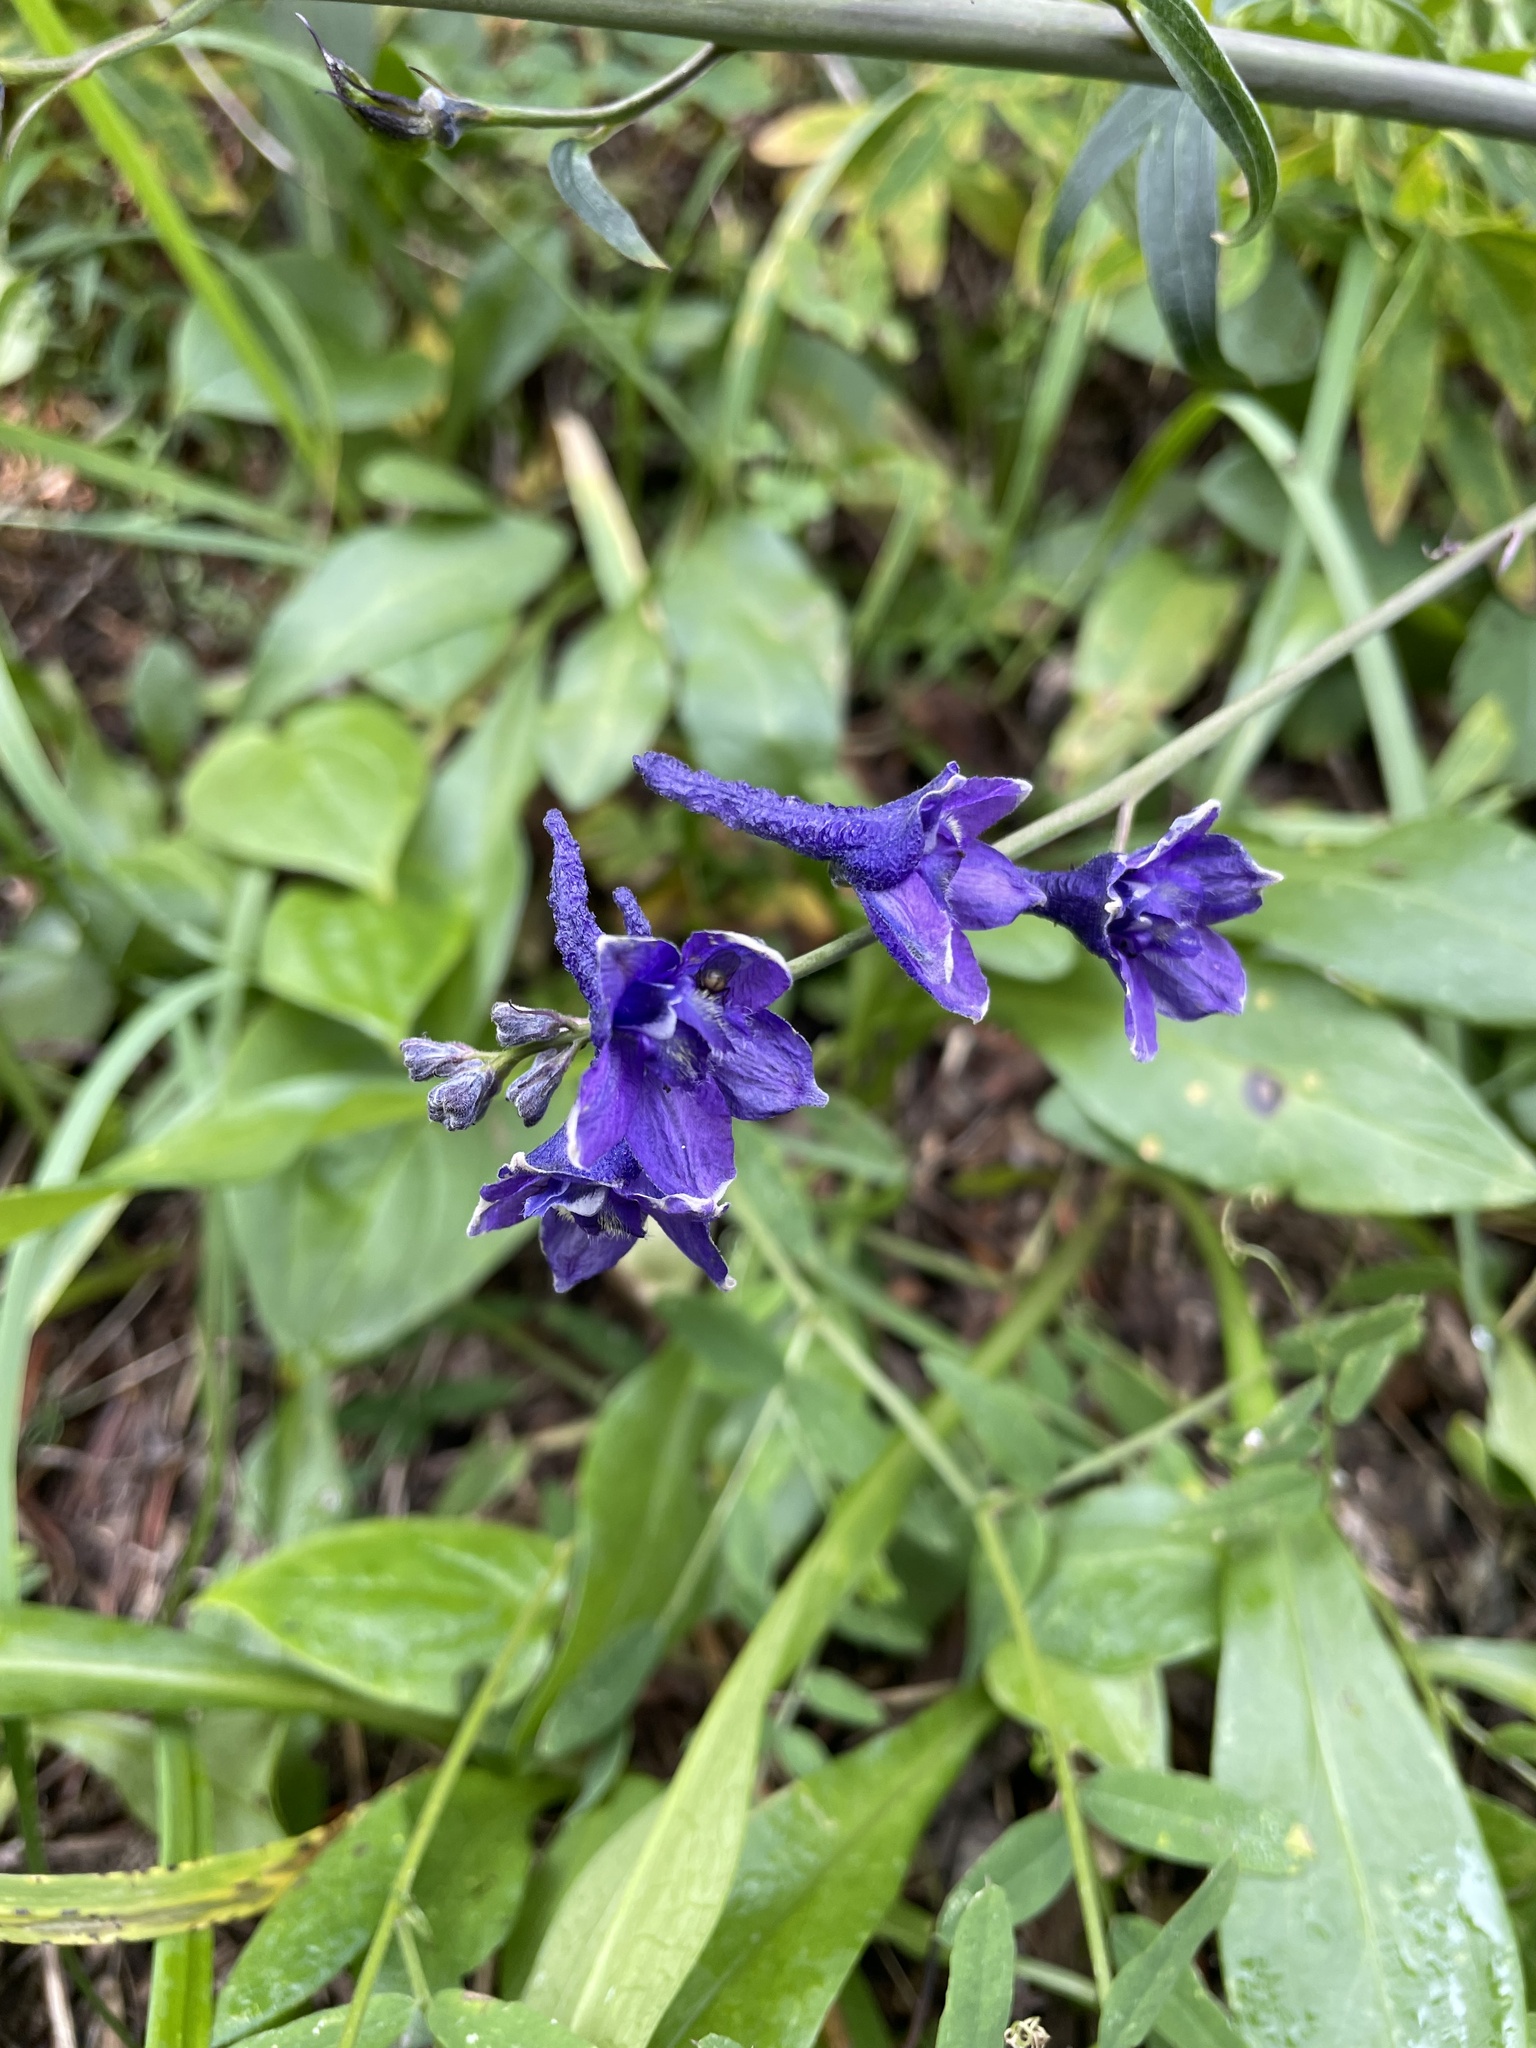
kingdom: Plantae
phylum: Tracheophyta
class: Magnoliopsida
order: Ranunculales
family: Ranunculaceae
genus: Delphinium
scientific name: Delphinium glaucum
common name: Brown's larkspur
